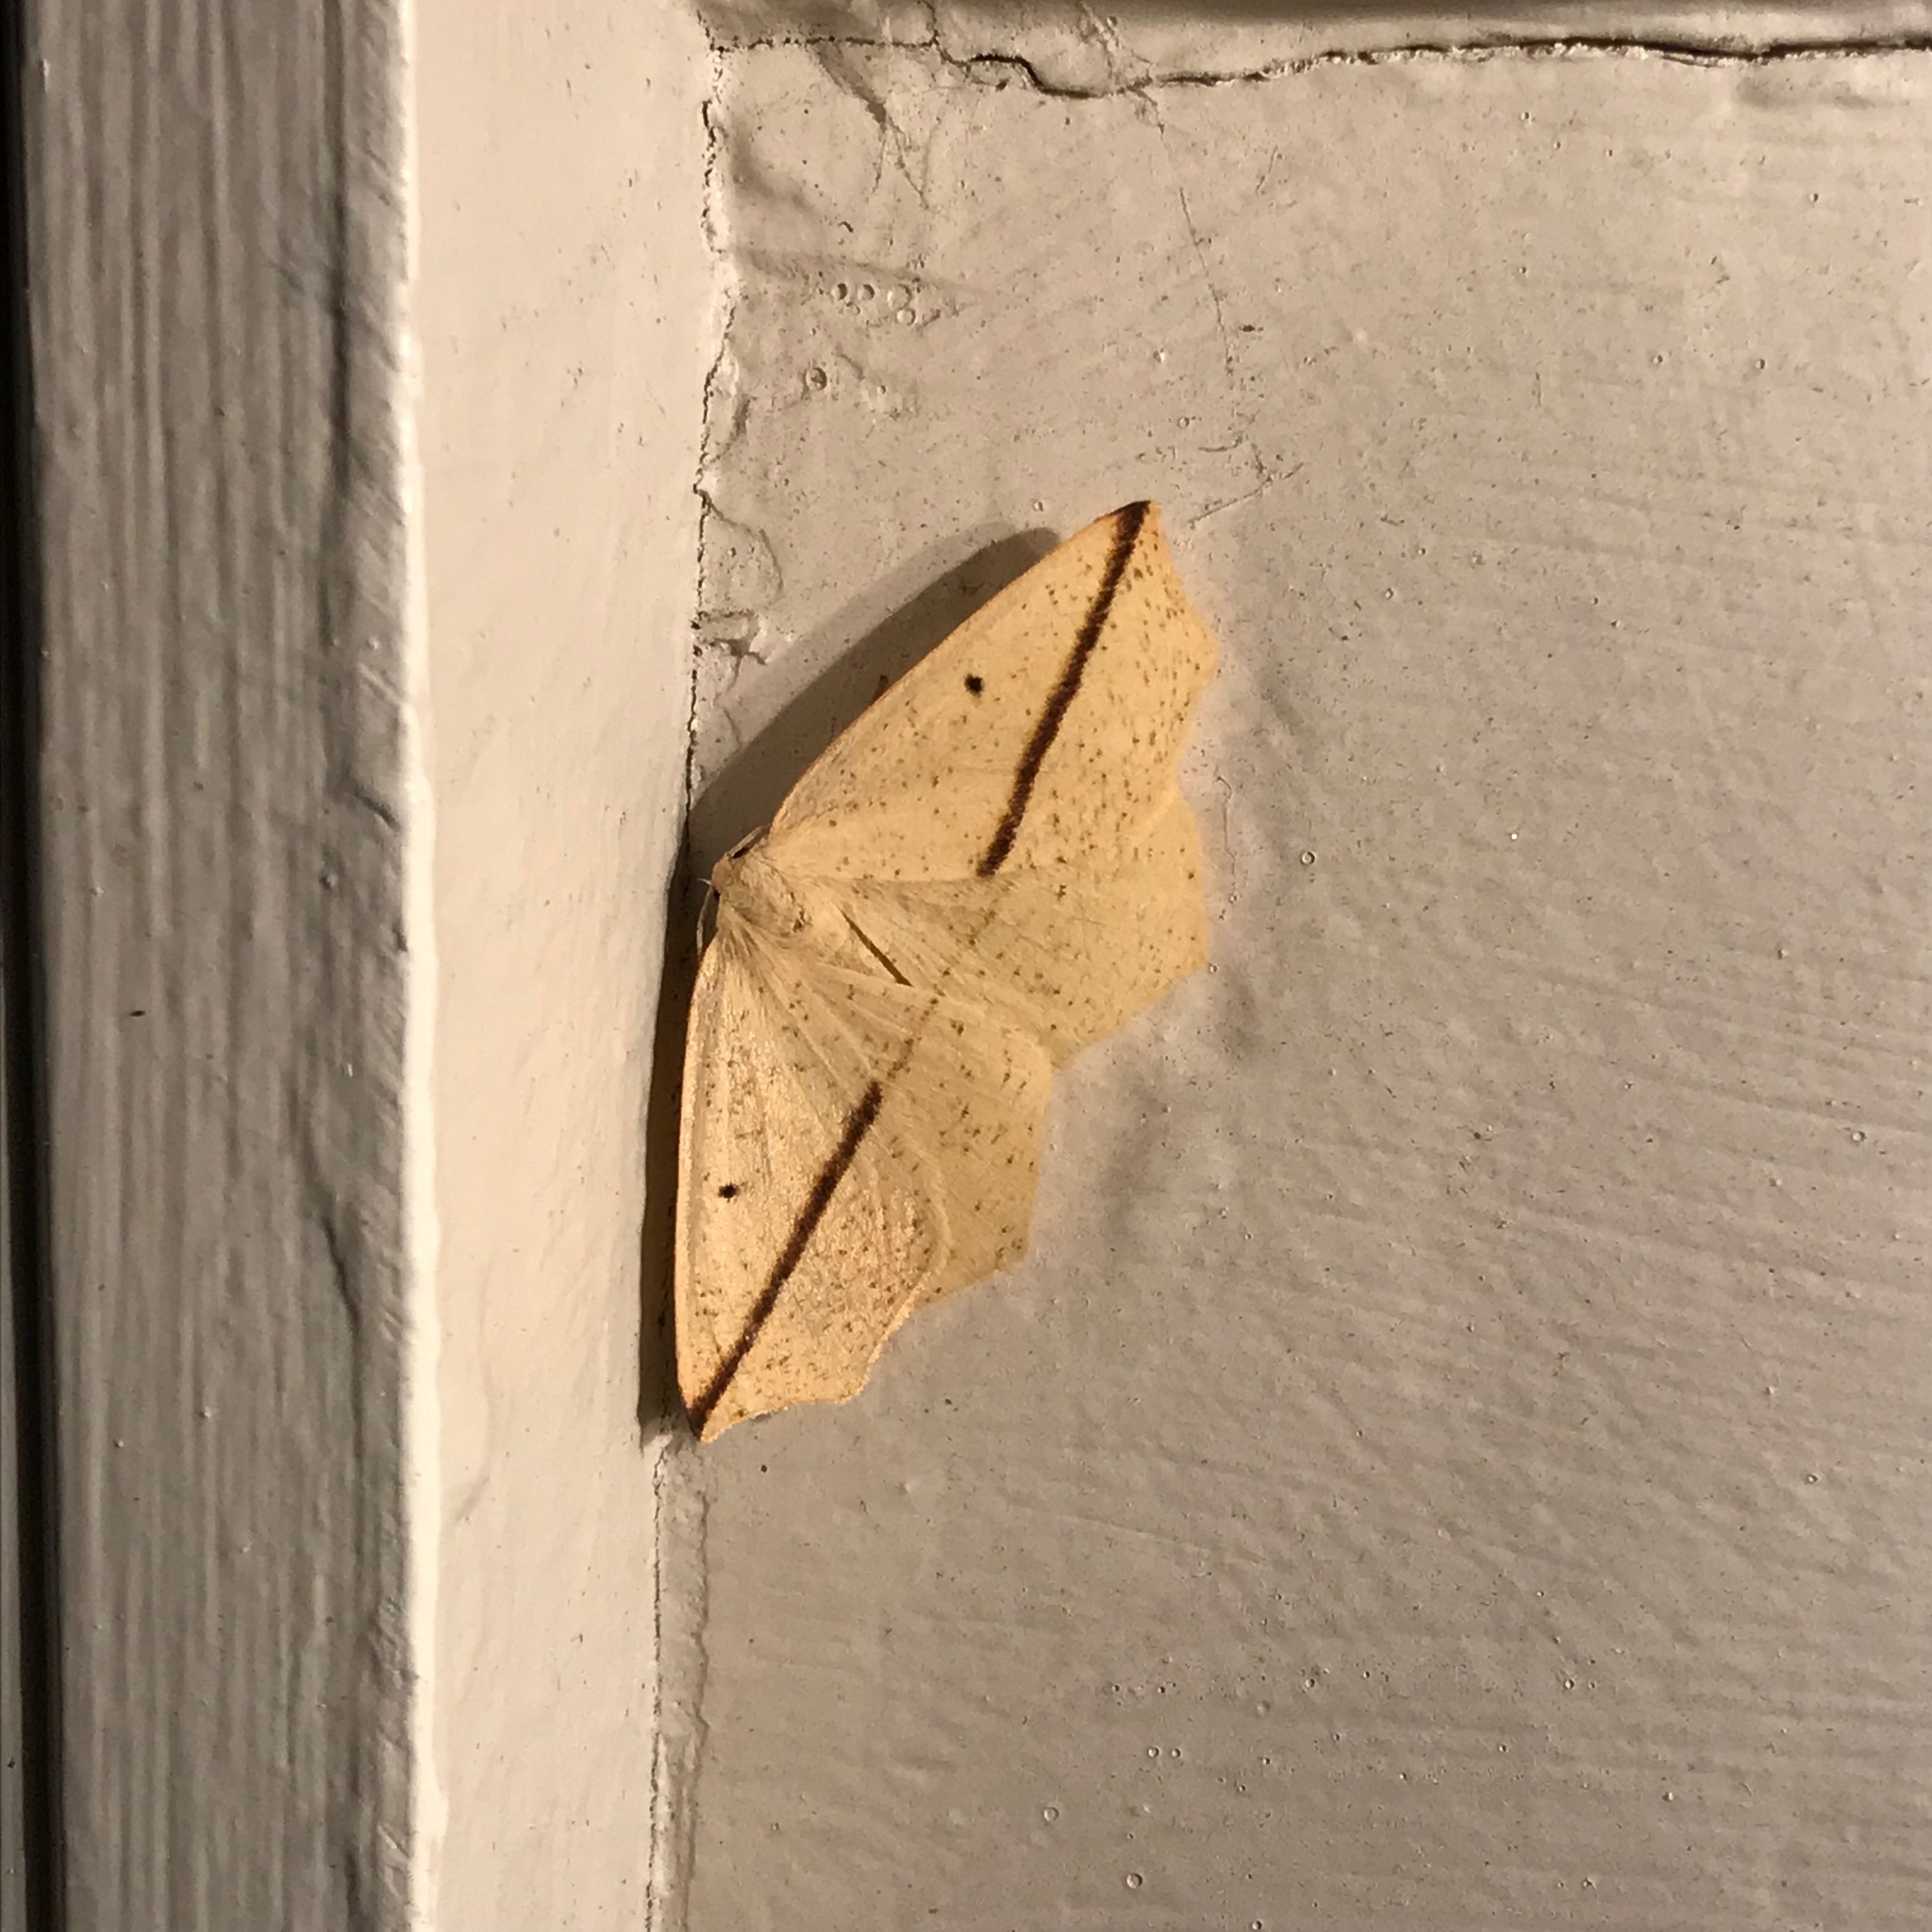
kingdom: Animalia
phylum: Arthropoda
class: Insecta
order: Lepidoptera
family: Geometridae
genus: Tetracis
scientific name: Tetracis crocallata
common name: Yellow slant-line
